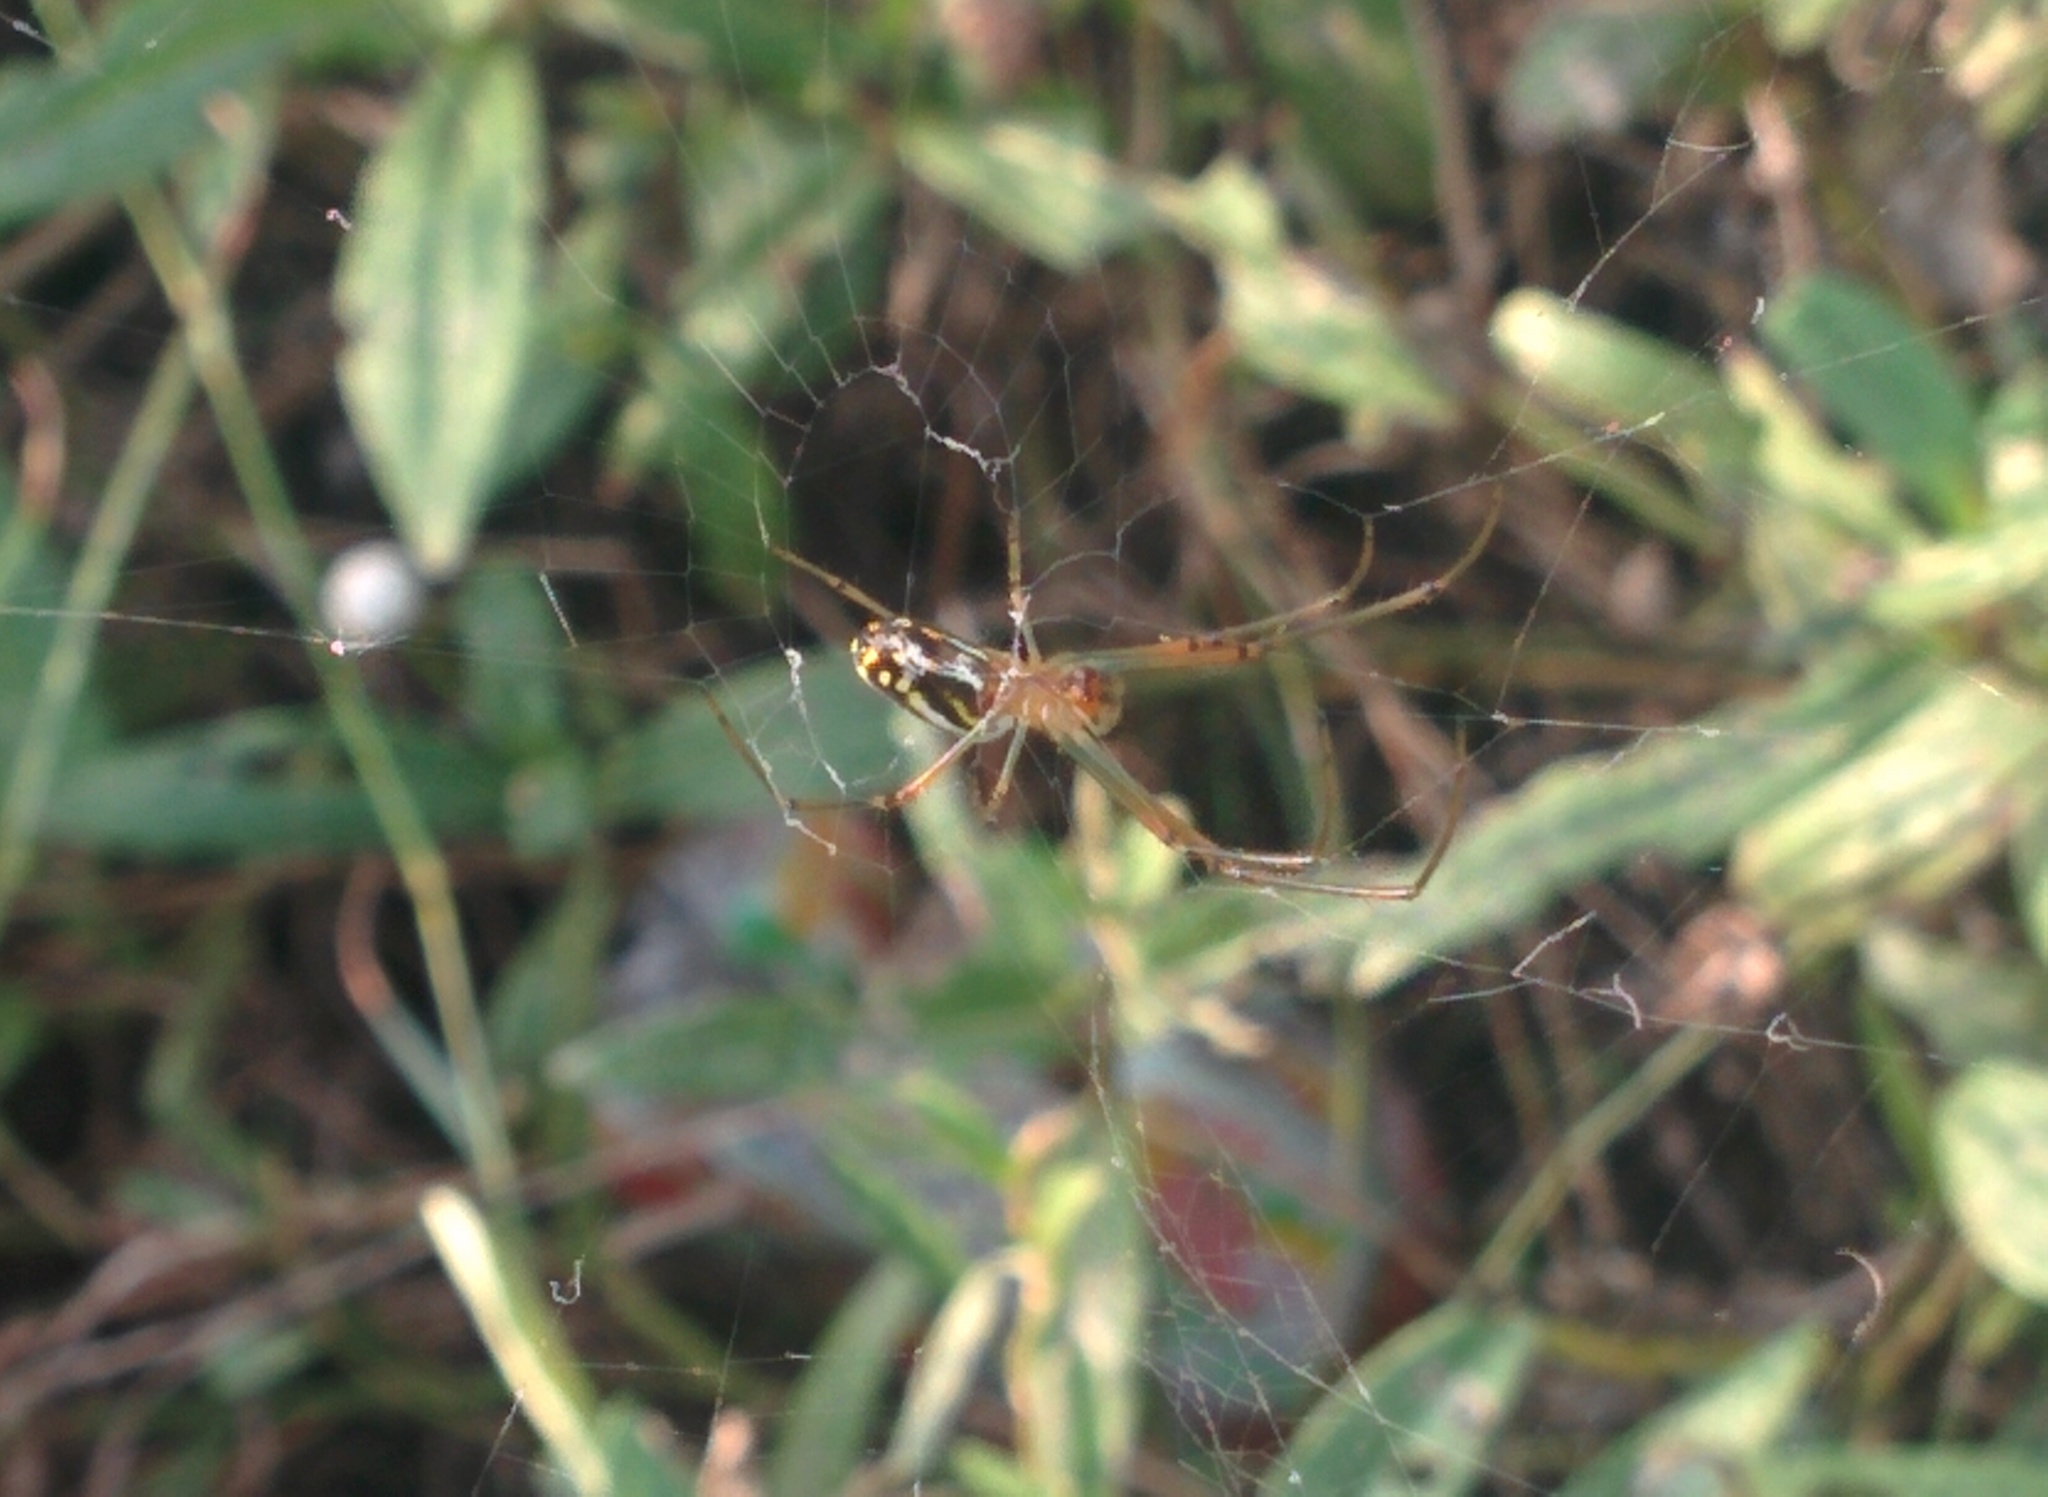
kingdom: Animalia
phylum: Arthropoda
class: Arachnida
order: Araneae
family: Tetragnathidae
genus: Leucauge
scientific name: Leucauge argyra
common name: Longjawed orb weavers
